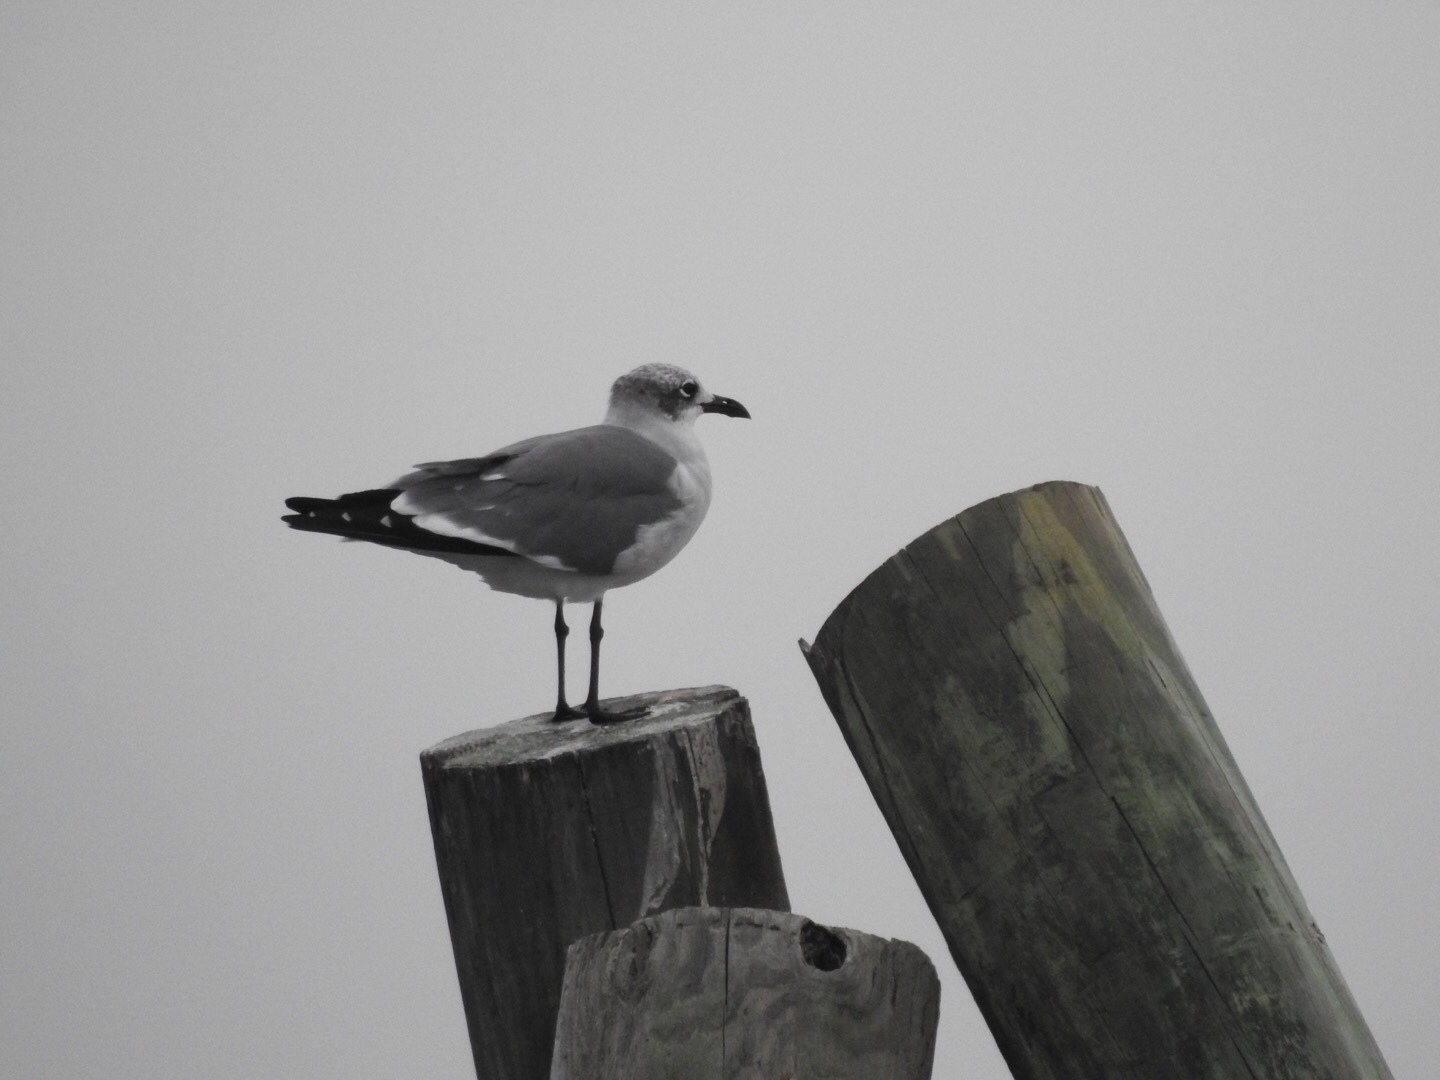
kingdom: Animalia
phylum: Chordata
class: Aves
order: Charadriiformes
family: Laridae
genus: Leucophaeus
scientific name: Leucophaeus atricilla
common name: Laughing gull
